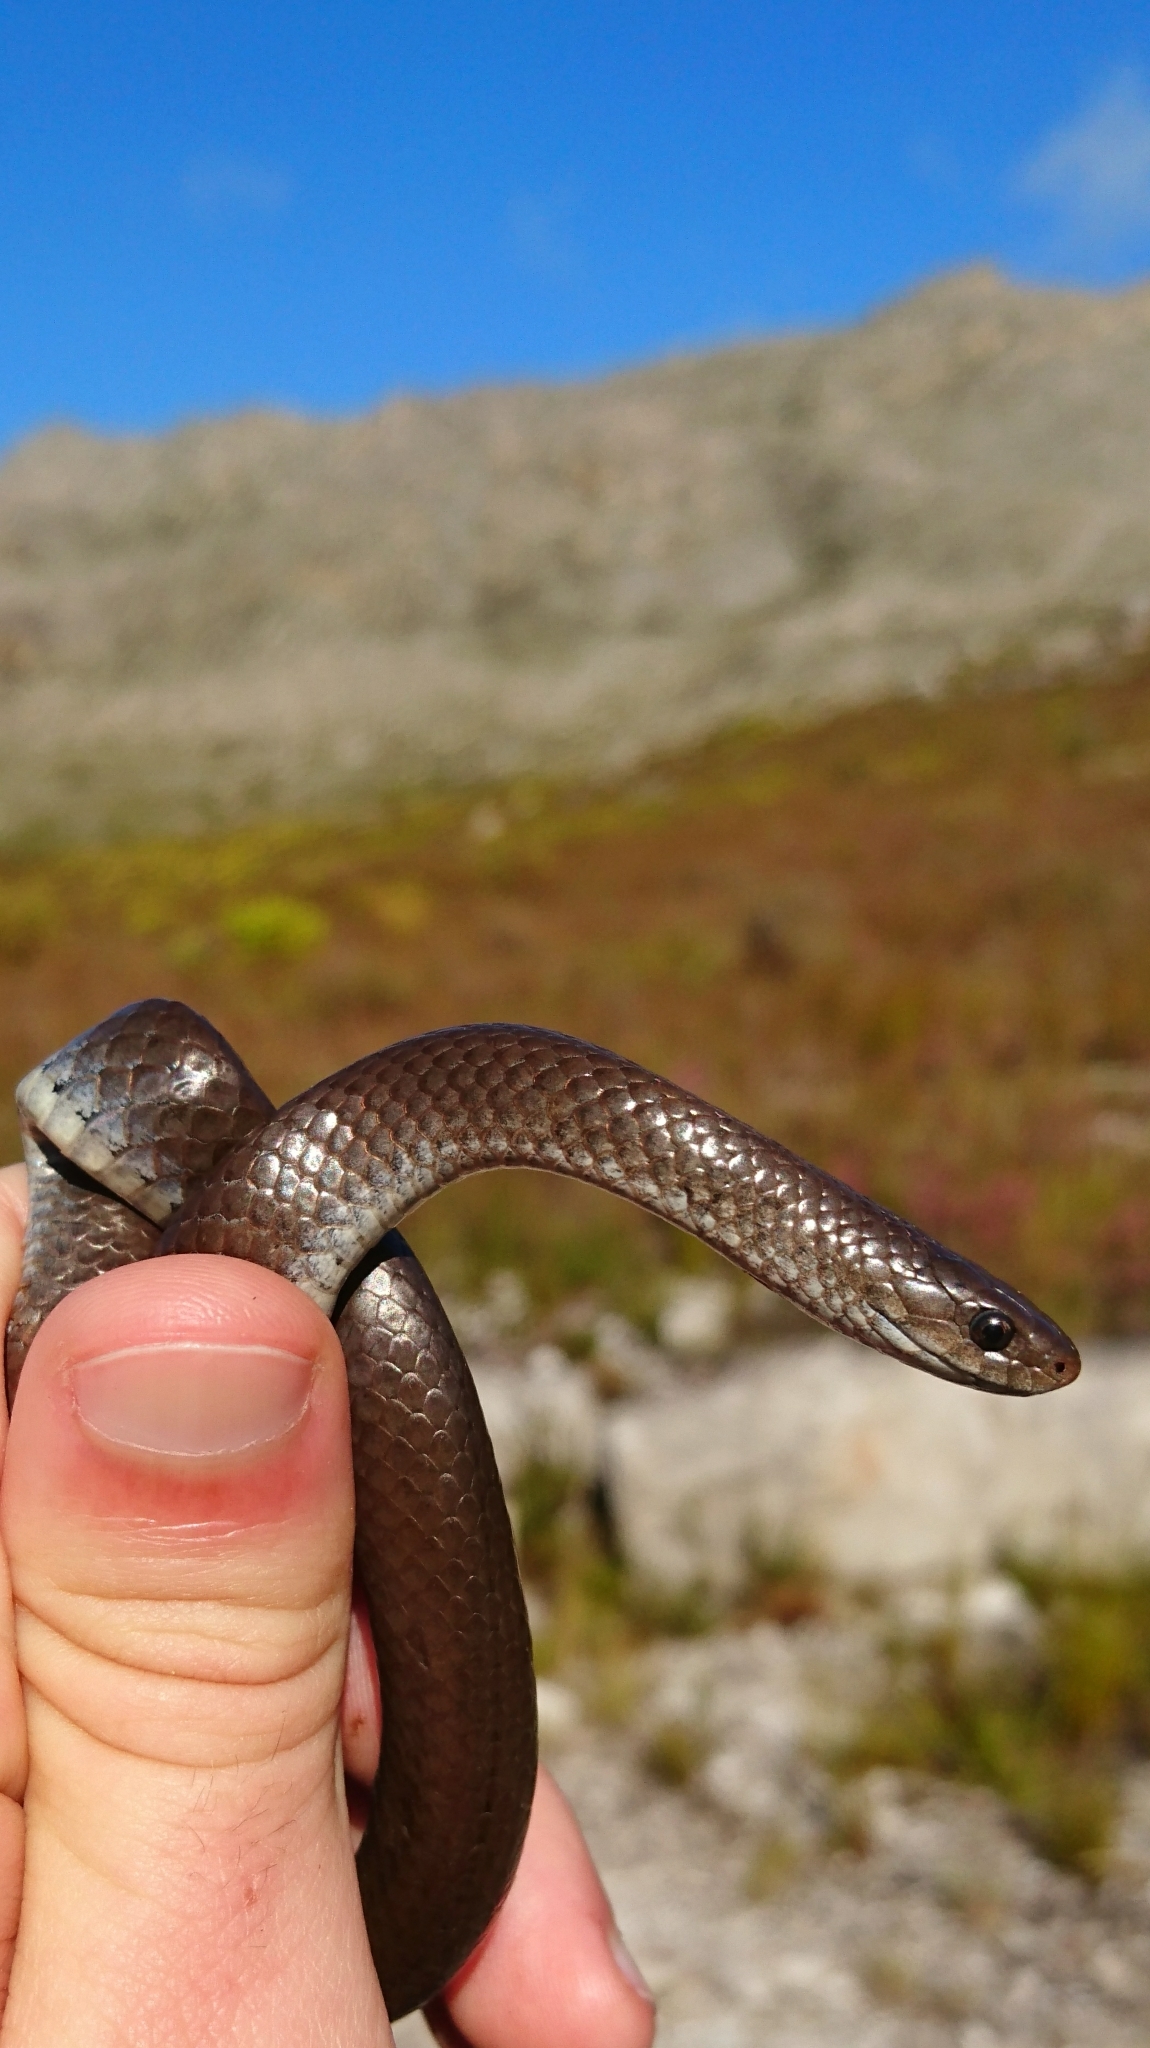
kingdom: Animalia
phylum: Chordata
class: Squamata
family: Pseudoxyrhophiidae
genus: Duberria
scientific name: Duberria lutrix
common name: Common slug eater
